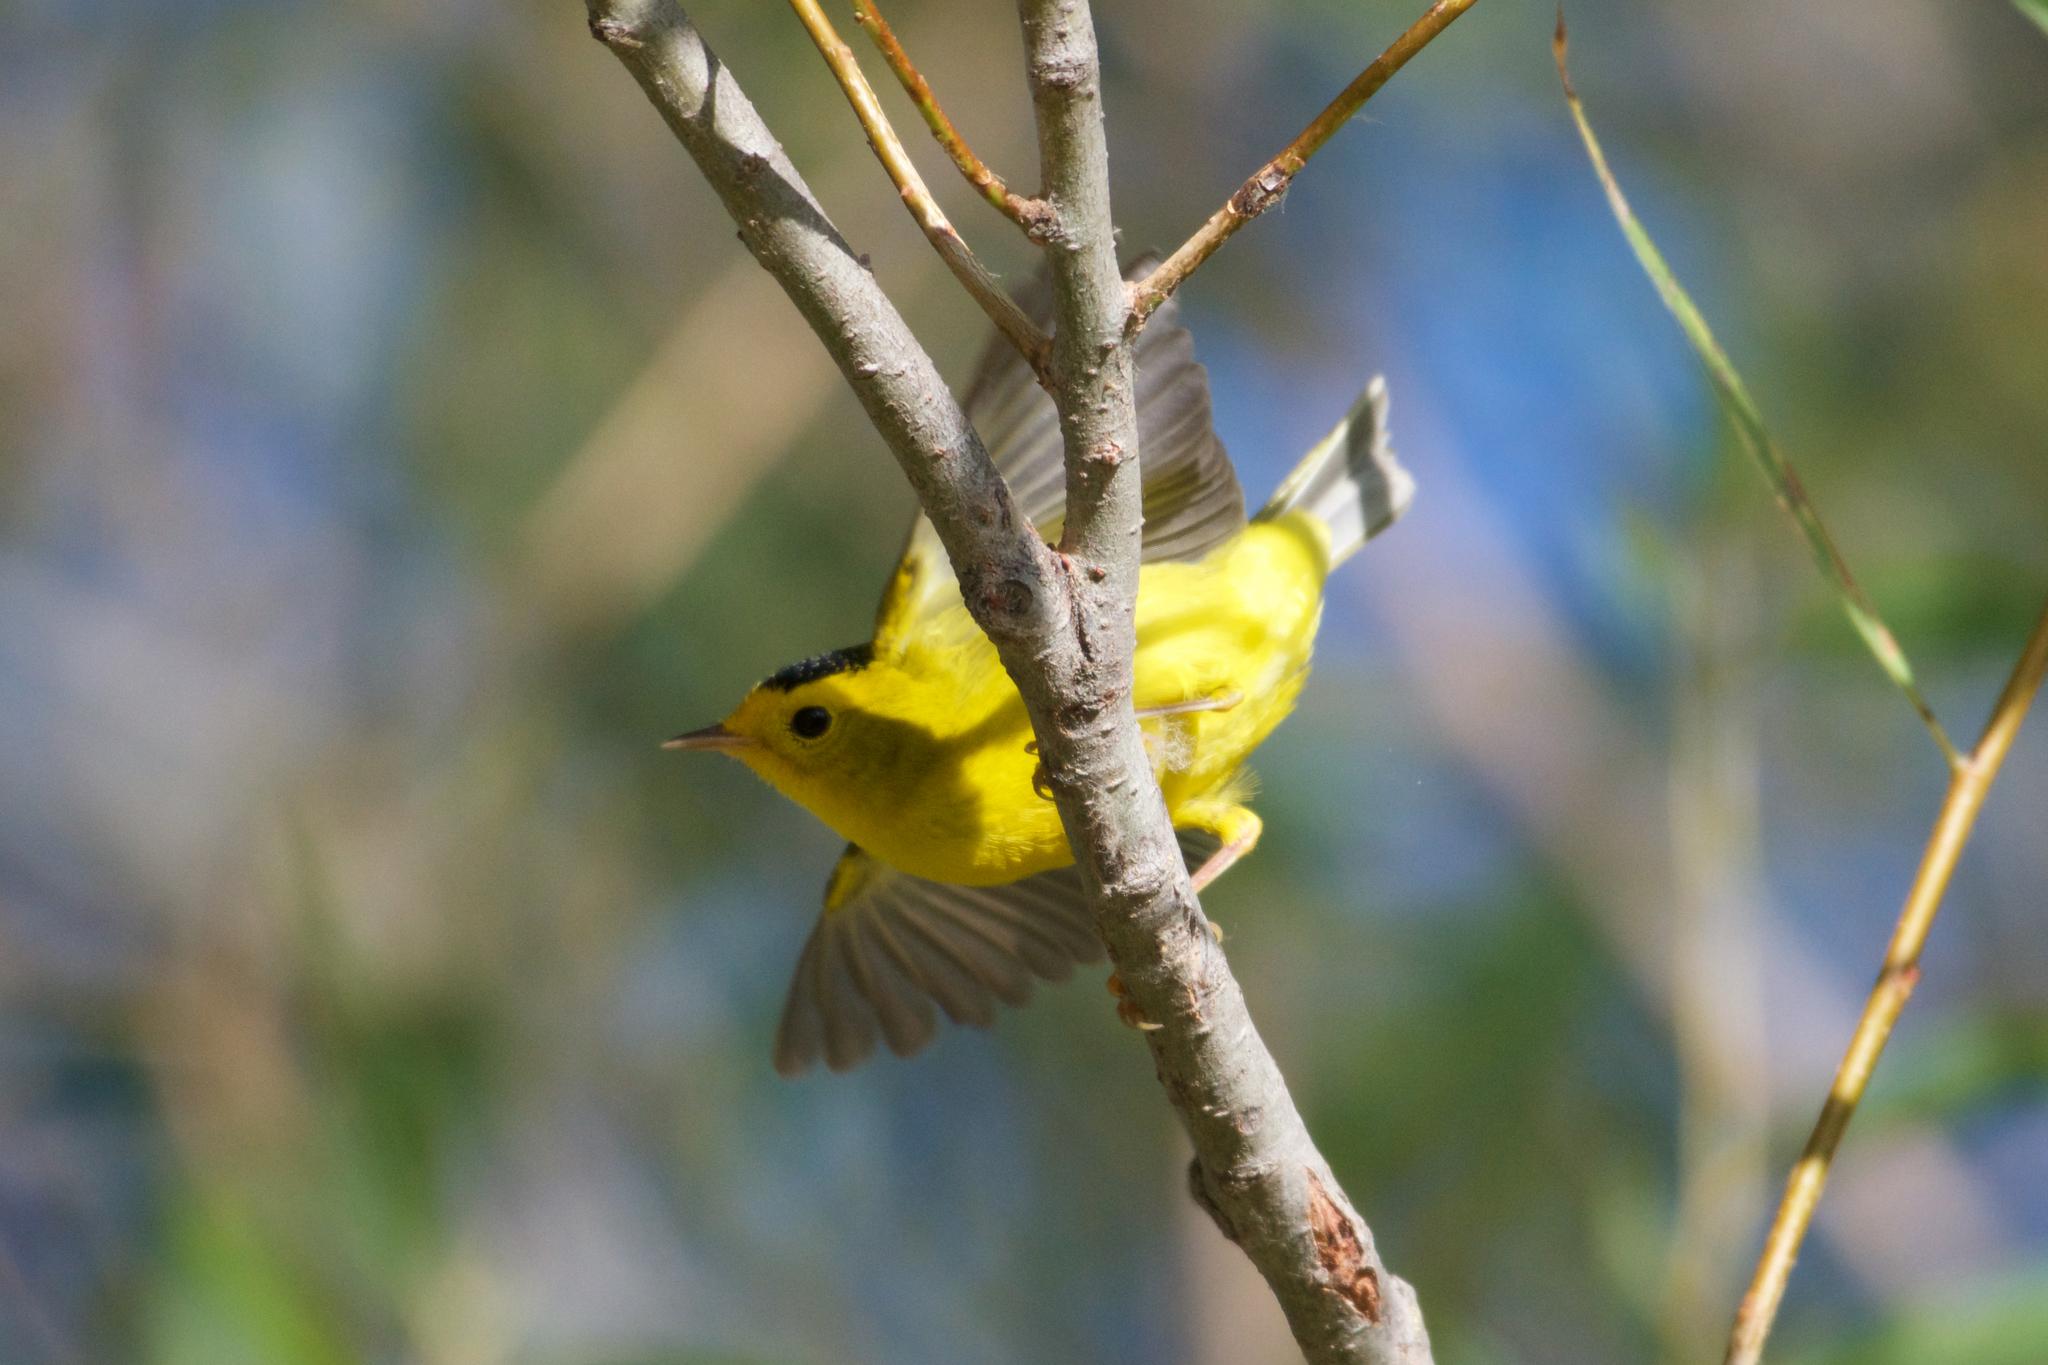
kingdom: Animalia
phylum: Chordata
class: Aves
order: Passeriformes
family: Parulidae
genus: Cardellina
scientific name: Cardellina pusilla
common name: Wilson's warbler
